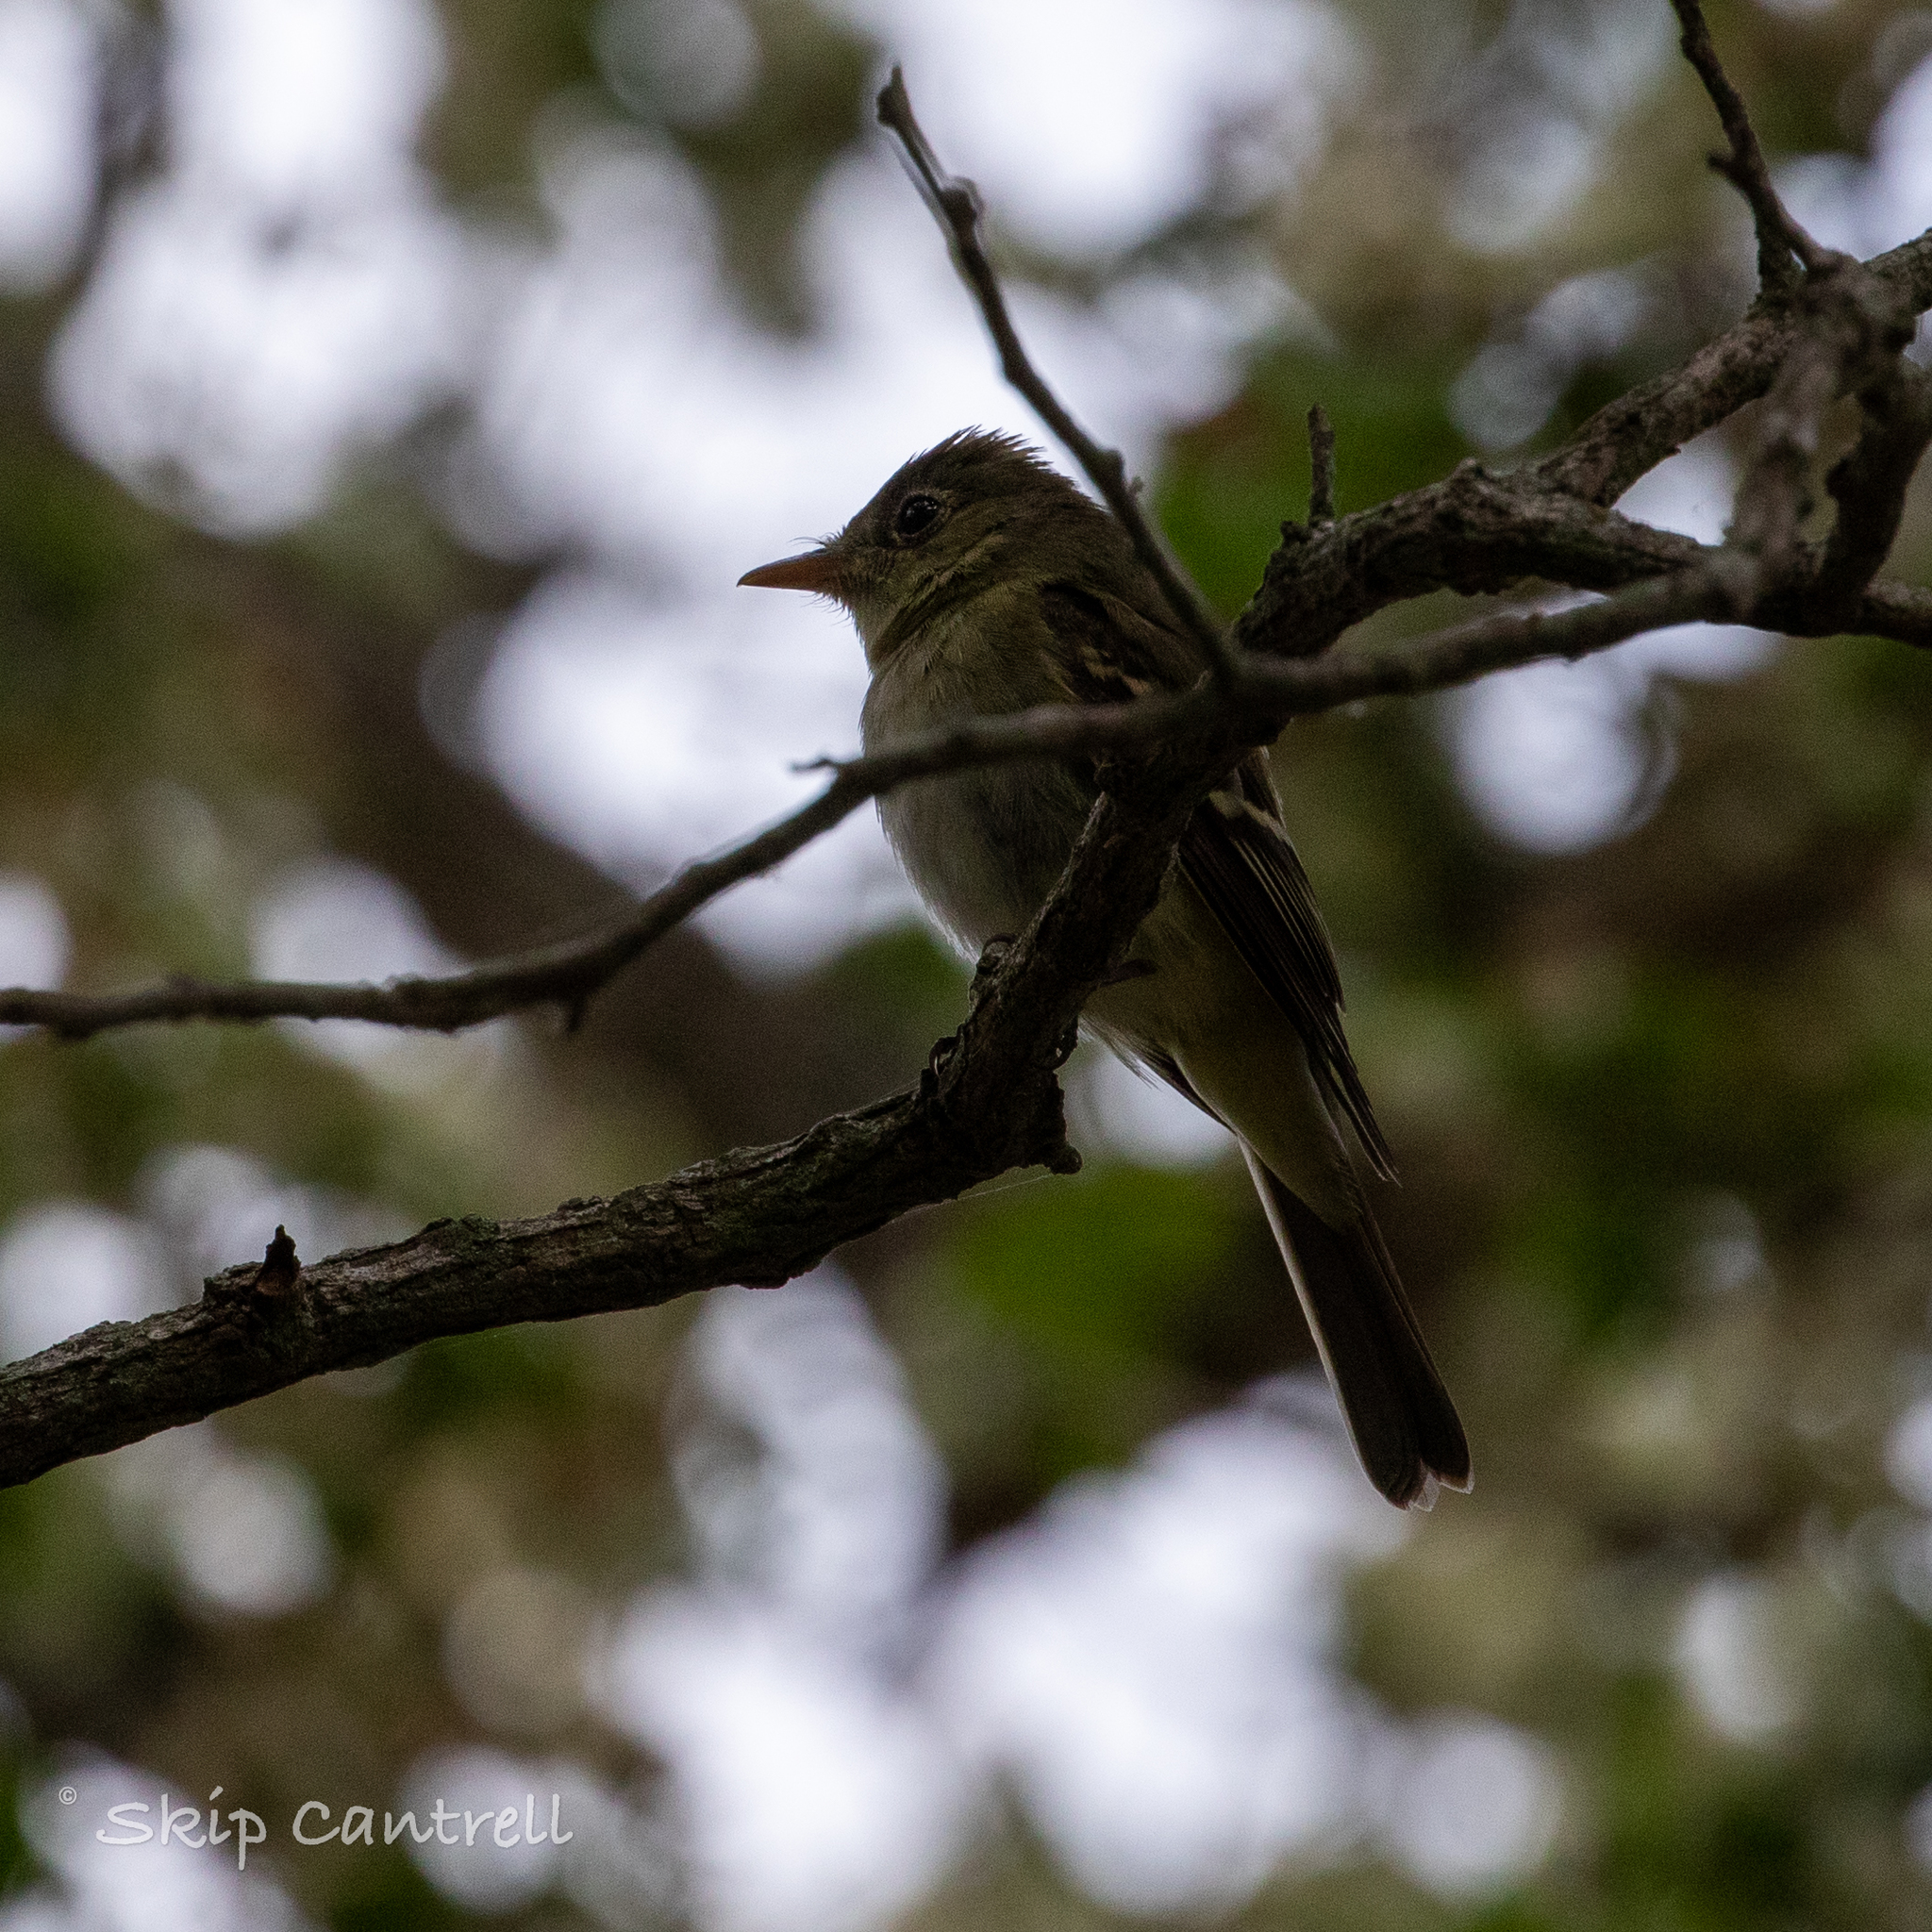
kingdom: Animalia
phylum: Chordata
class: Aves
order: Passeriformes
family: Tyrannidae
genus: Empidonax
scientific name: Empidonax virescens
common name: Acadian flycatcher
